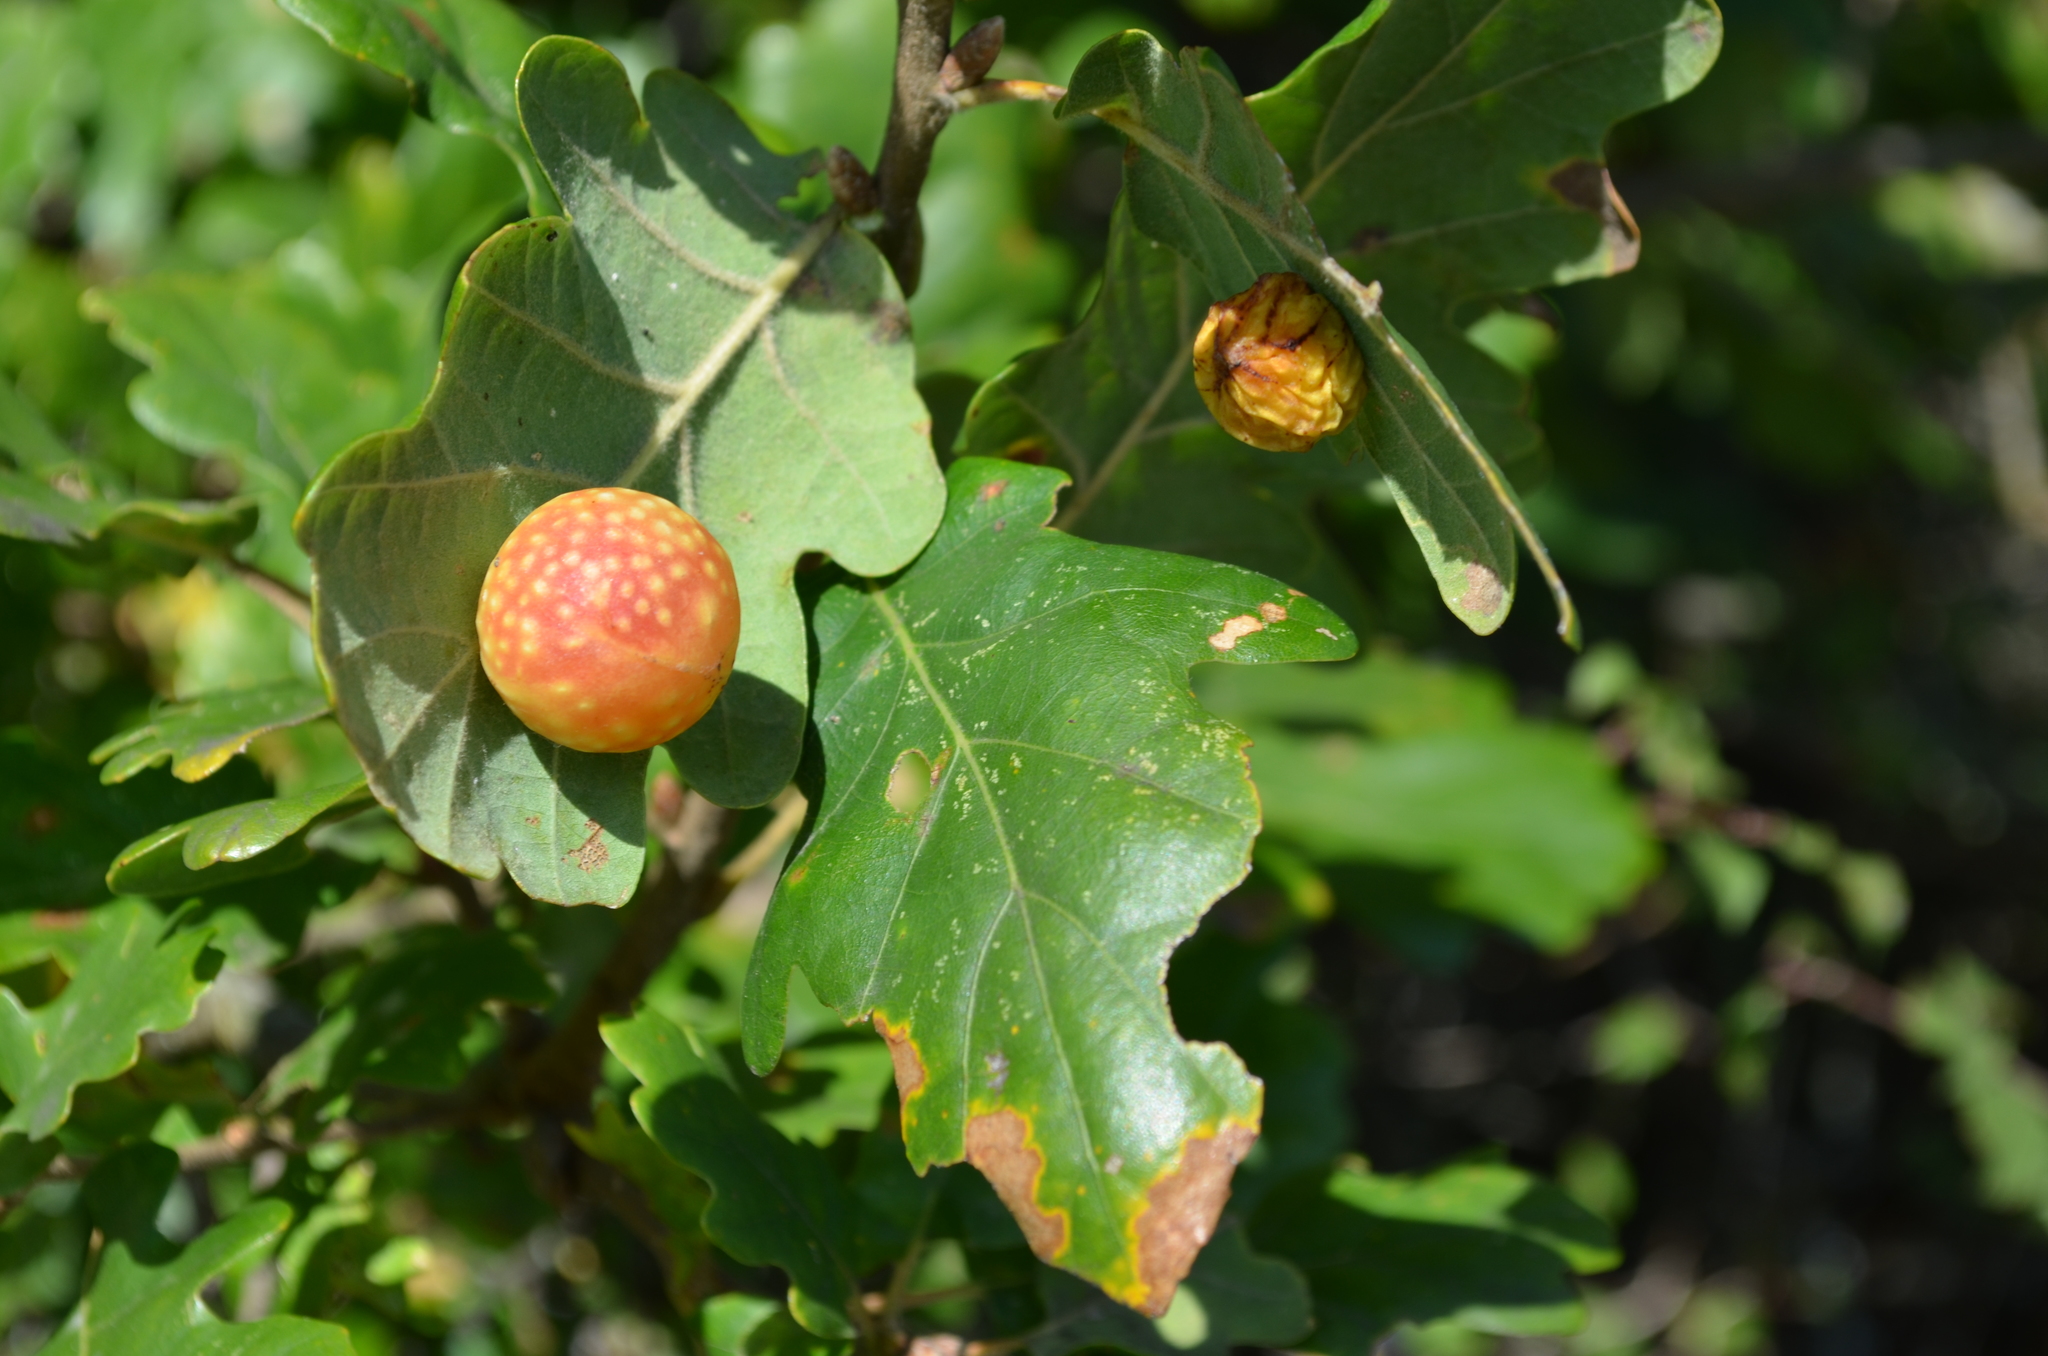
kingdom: Animalia
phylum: Arthropoda
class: Insecta
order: Hymenoptera
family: Cynipidae
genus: Cynips
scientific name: Cynips quercusfolii
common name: Cherry gall
